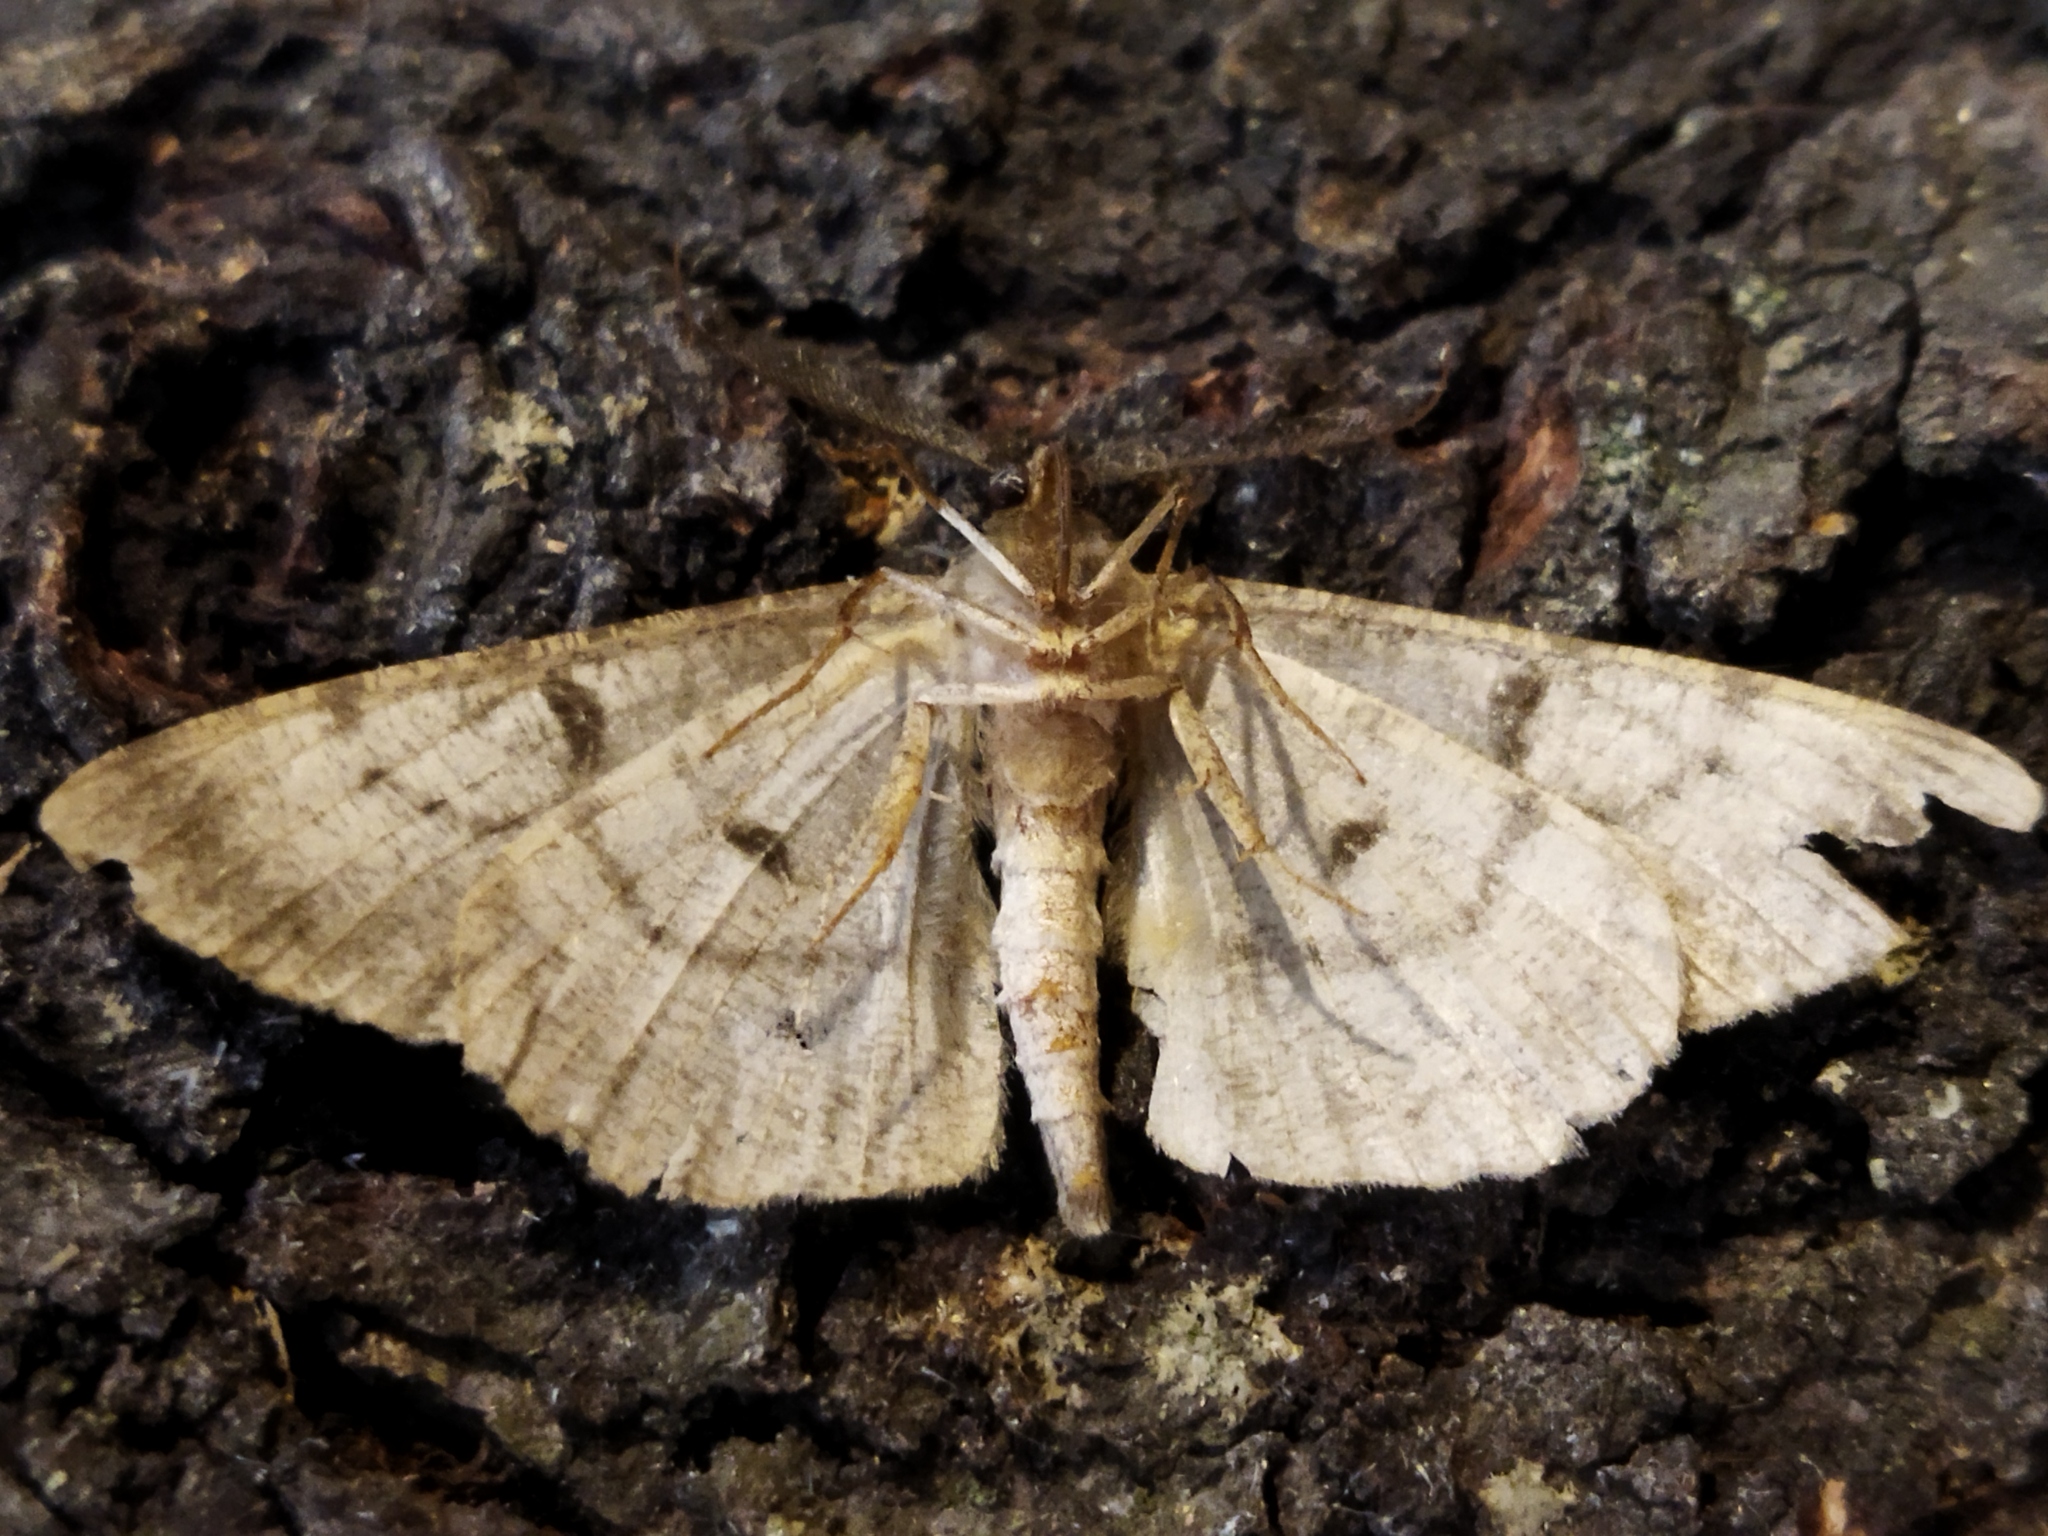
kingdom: Animalia
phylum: Arthropoda
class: Insecta
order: Lepidoptera
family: Geometridae
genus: Hypomecis
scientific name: Hypomecis punctinalis
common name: Pale oak beauty
